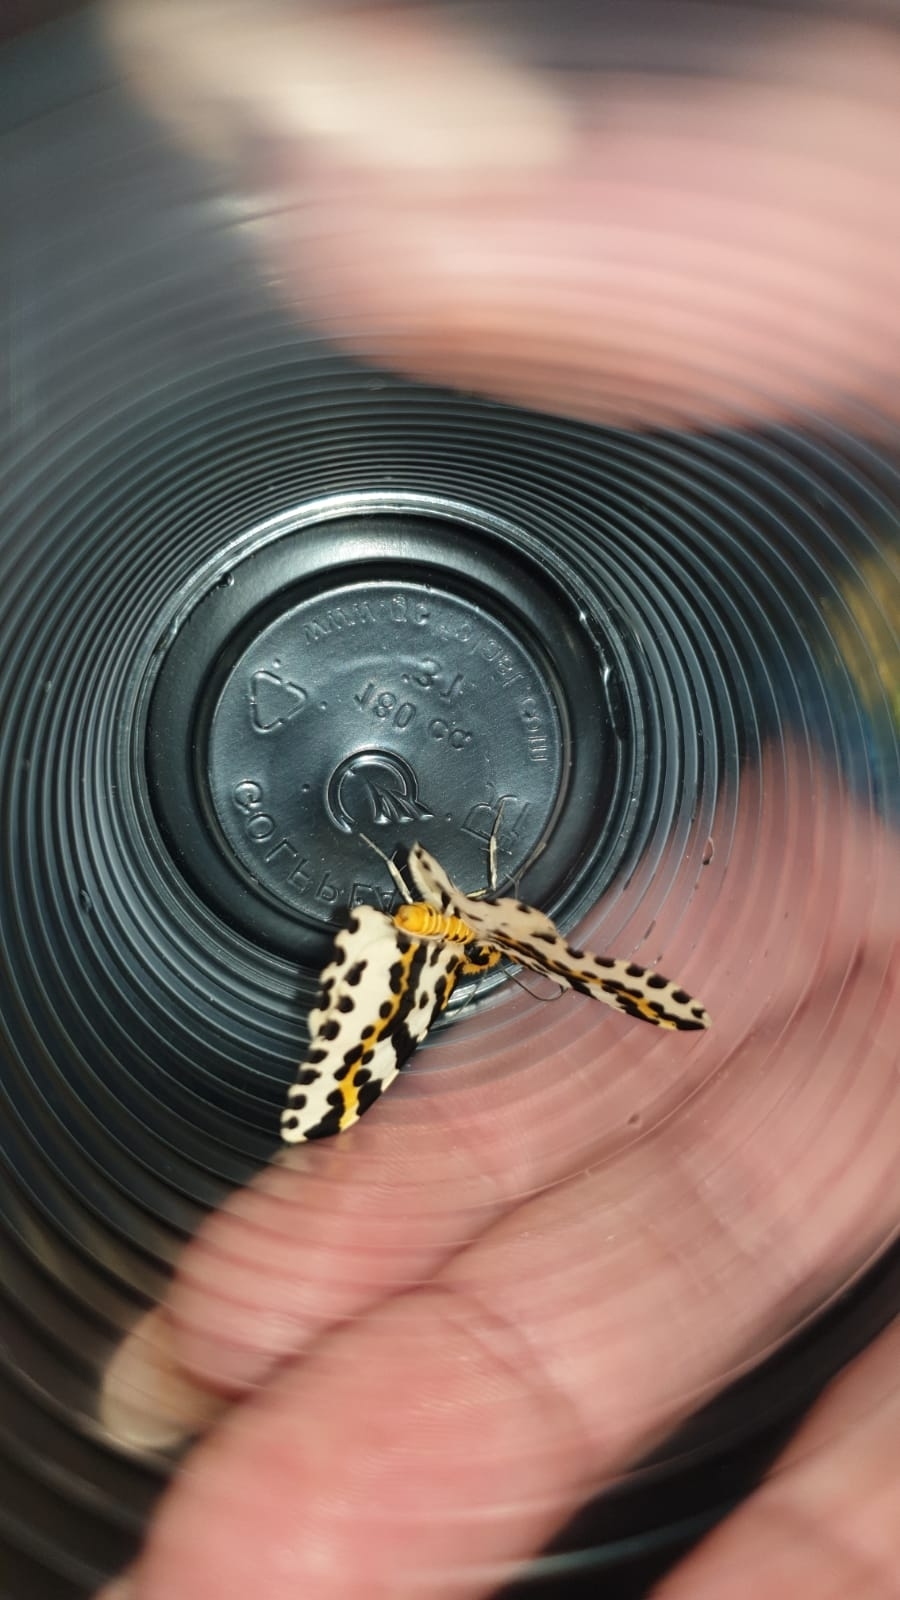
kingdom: Animalia
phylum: Arthropoda
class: Insecta
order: Lepidoptera
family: Geometridae
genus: Abraxas
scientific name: Abraxas grossulariata
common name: Magpie
